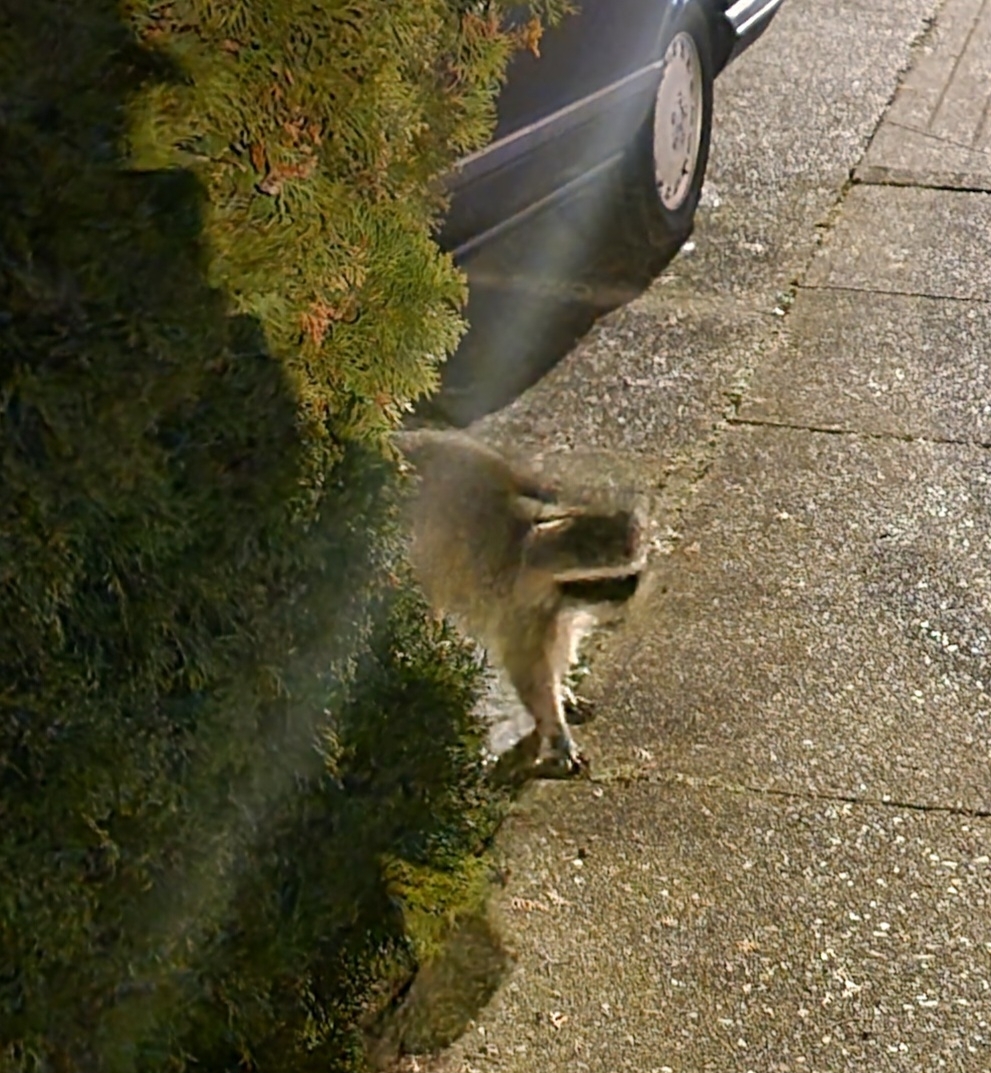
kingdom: Animalia
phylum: Chordata
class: Mammalia
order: Carnivora
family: Procyonidae
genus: Procyon
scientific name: Procyon lotor
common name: Raccoon
